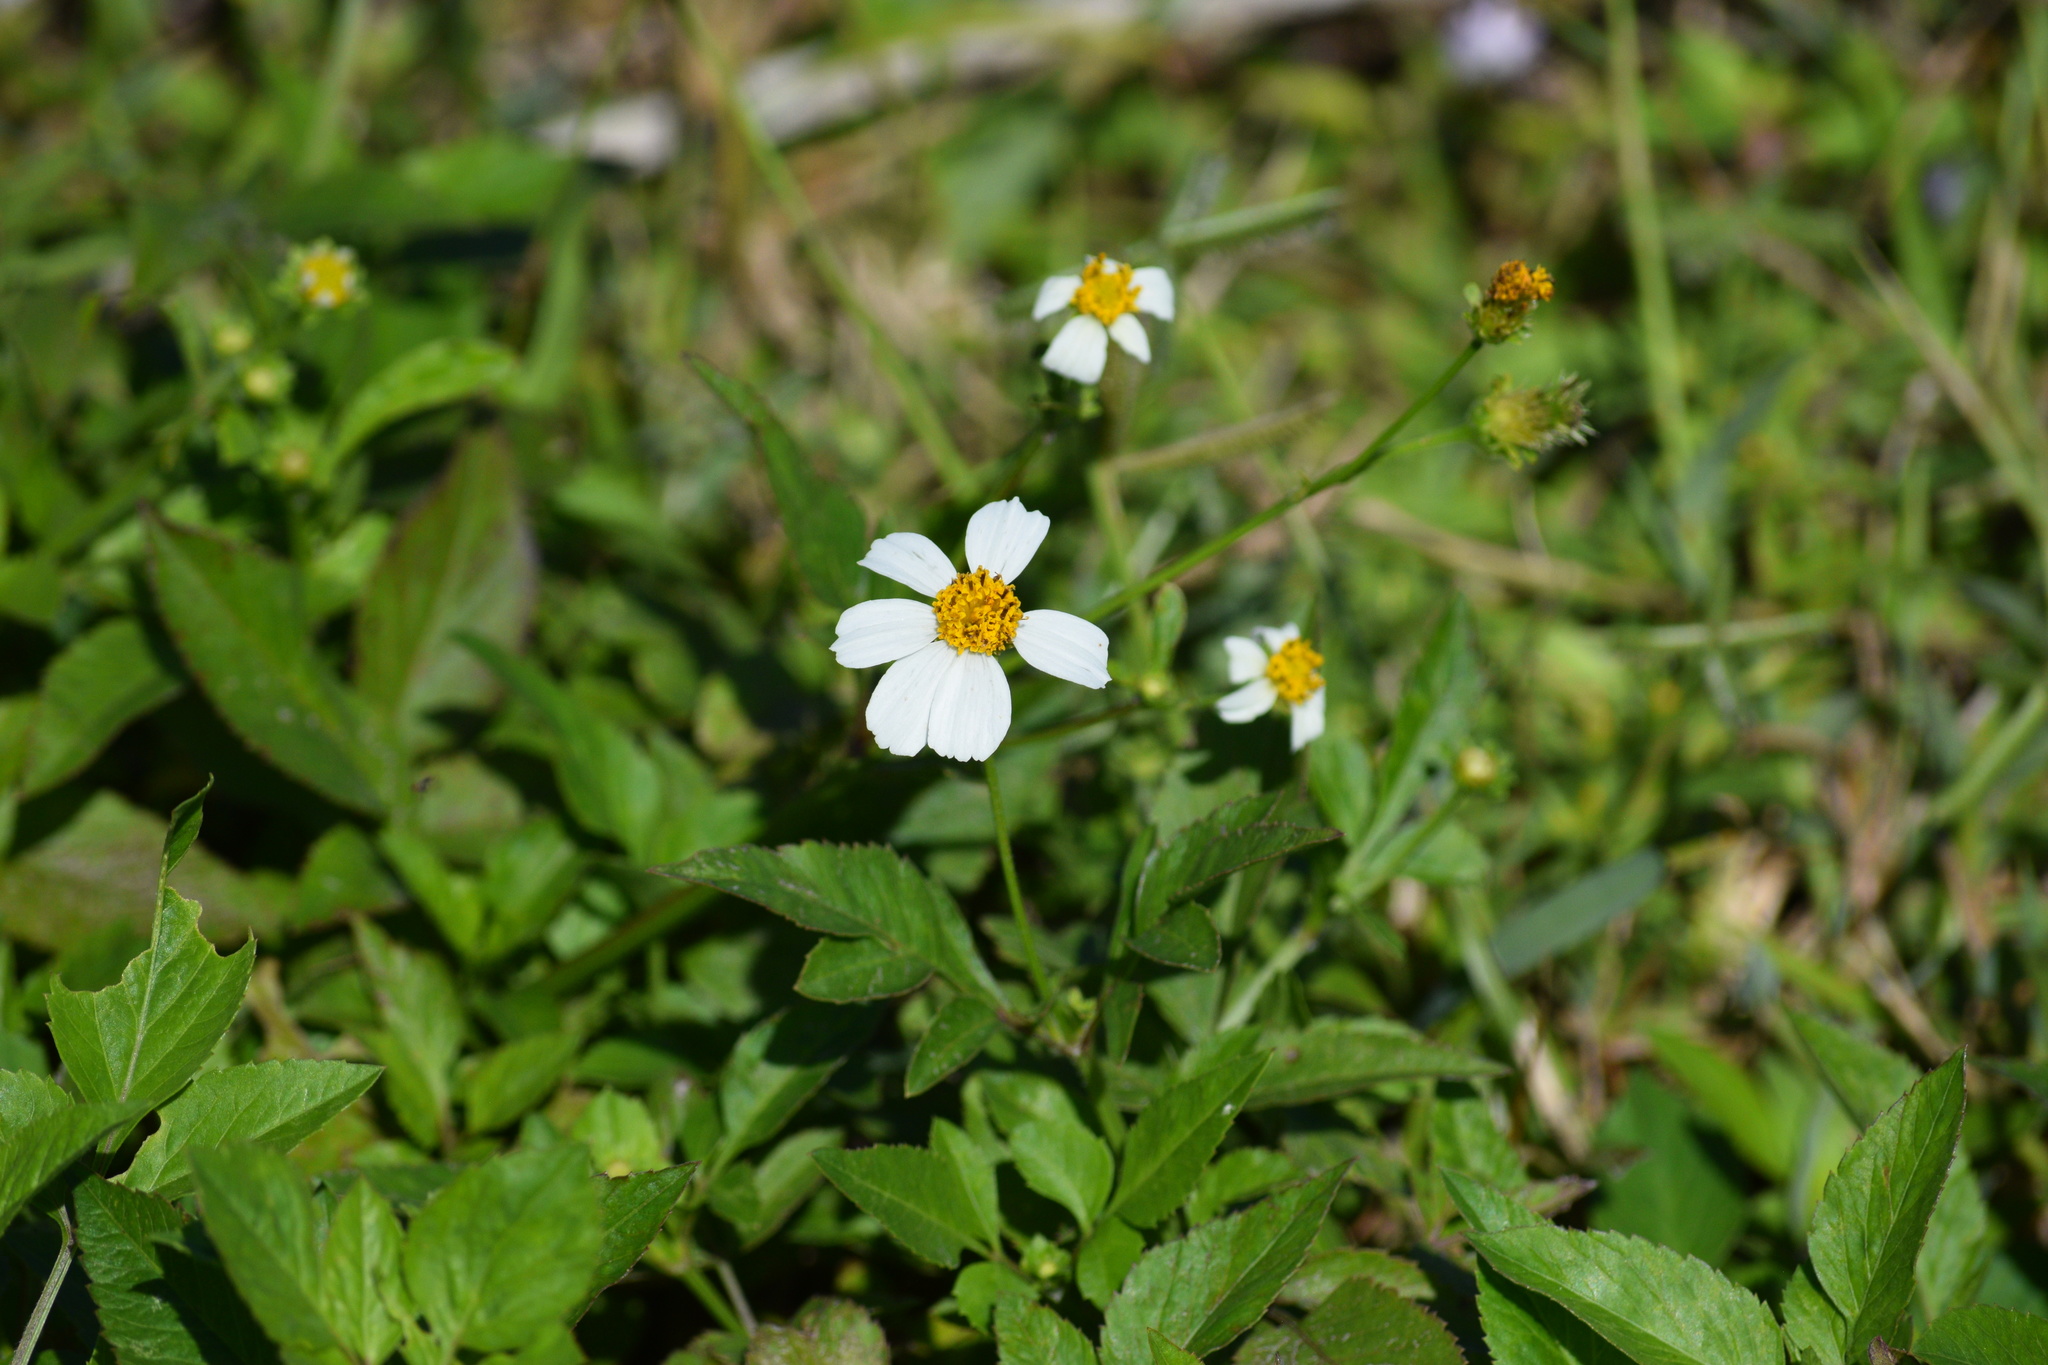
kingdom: Plantae
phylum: Tracheophyta
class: Magnoliopsida
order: Asterales
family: Asteraceae
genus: Bidens
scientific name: Bidens alba
